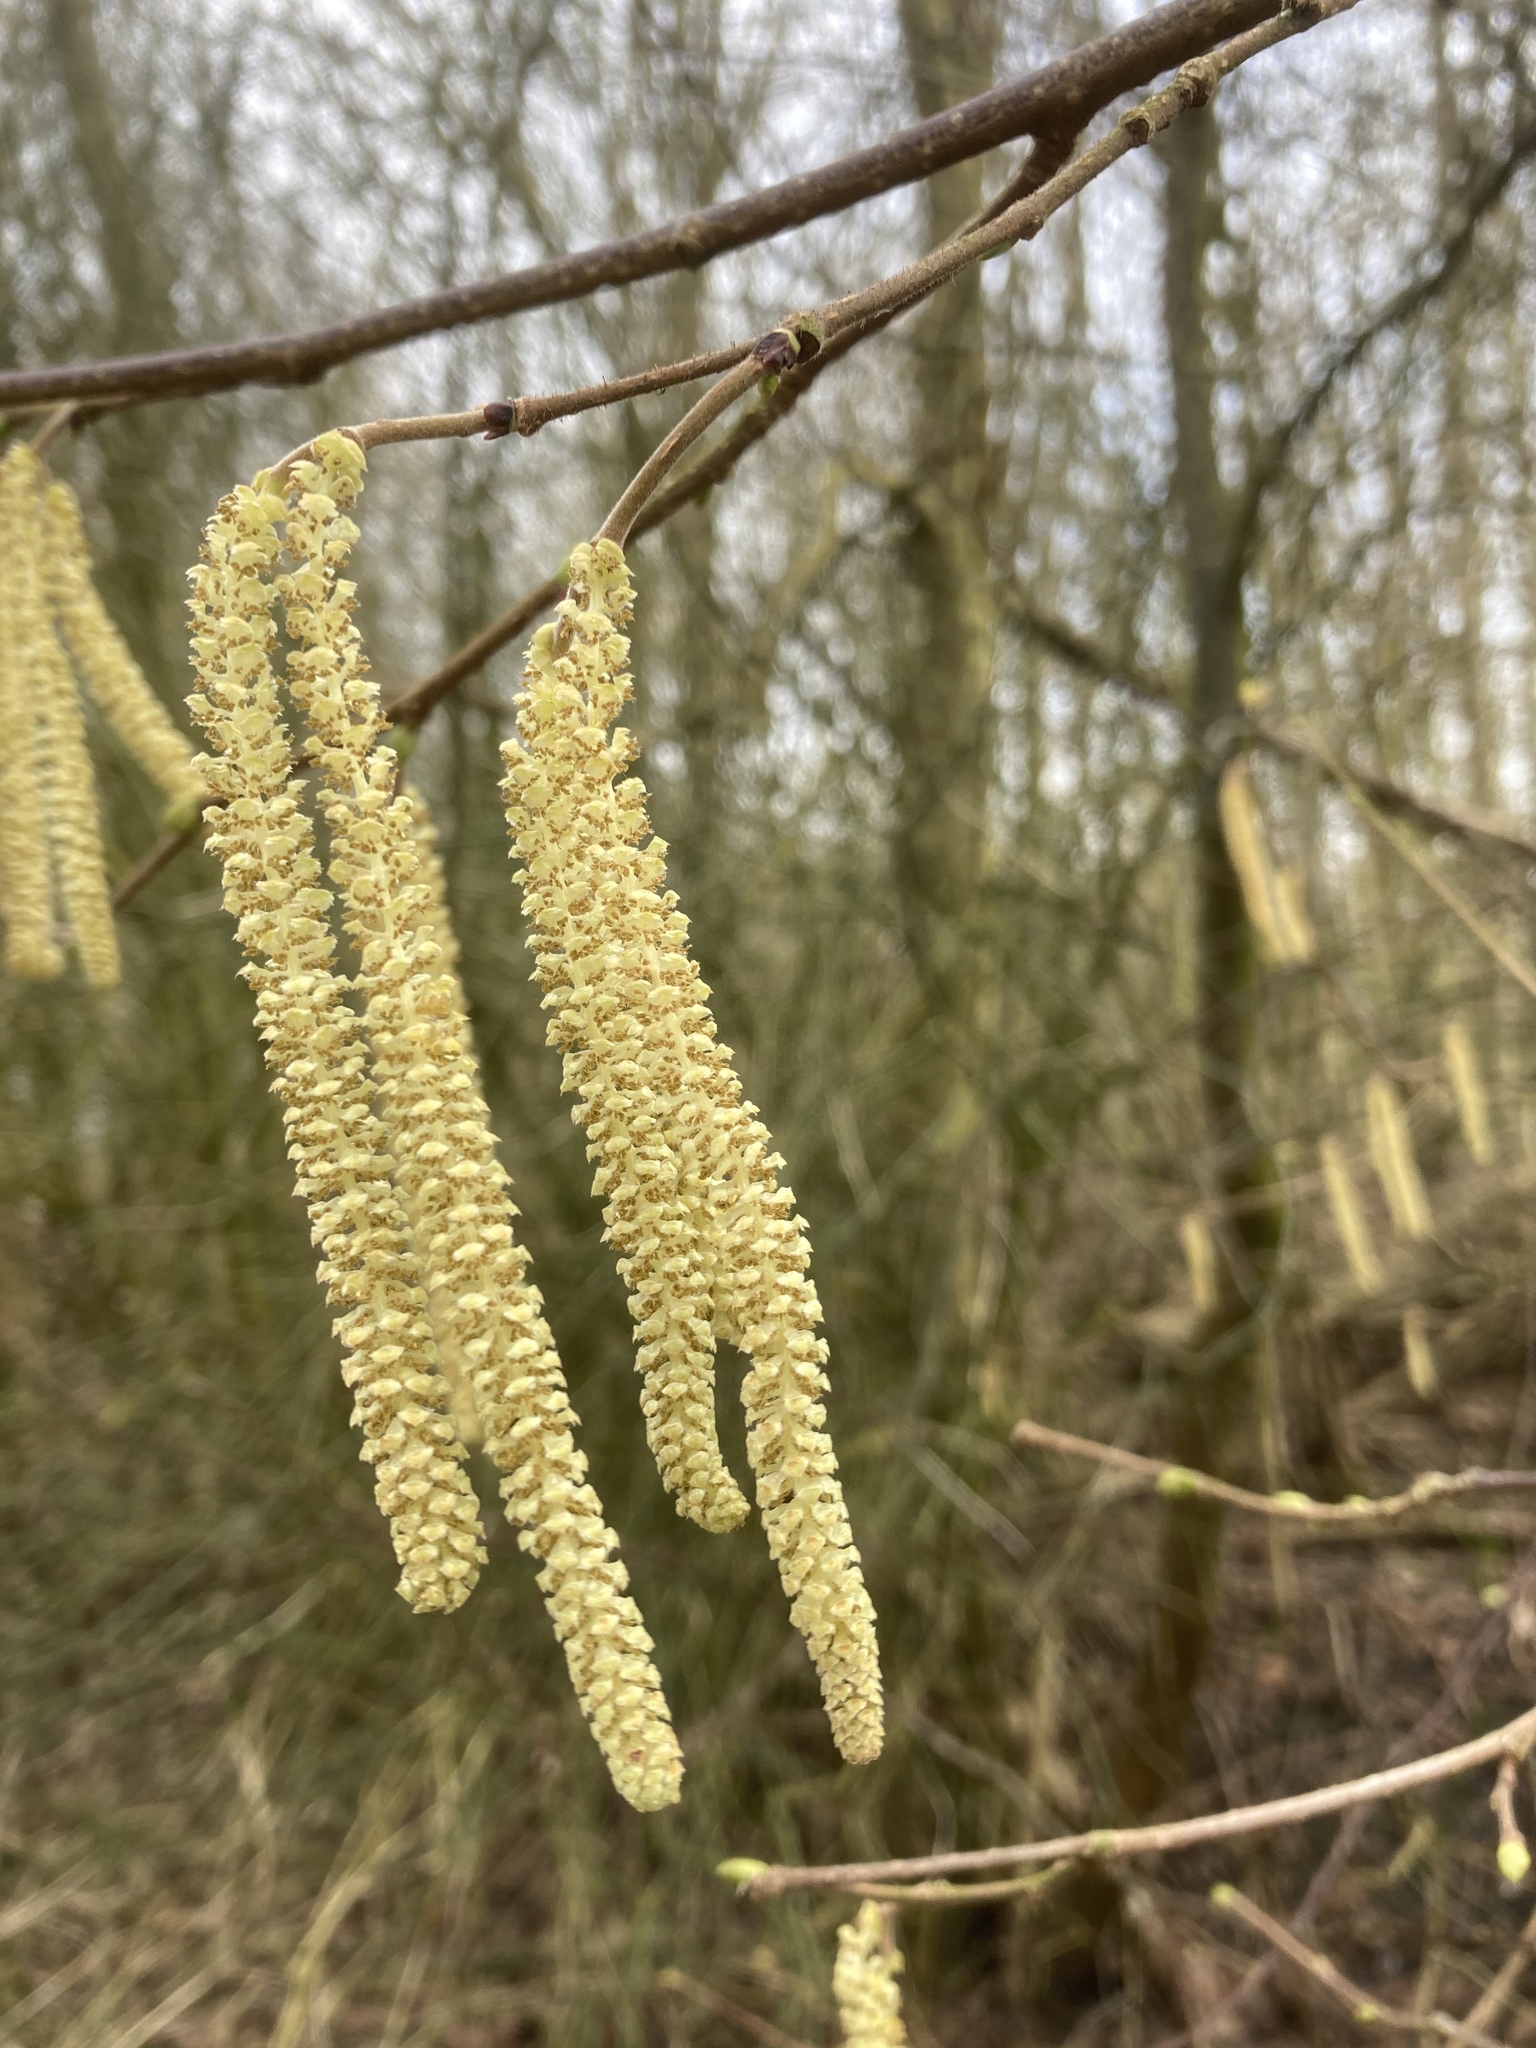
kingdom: Plantae
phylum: Tracheophyta
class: Magnoliopsida
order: Fagales
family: Betulaceae
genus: Corylus
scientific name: Corylus avellana
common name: European hazel
